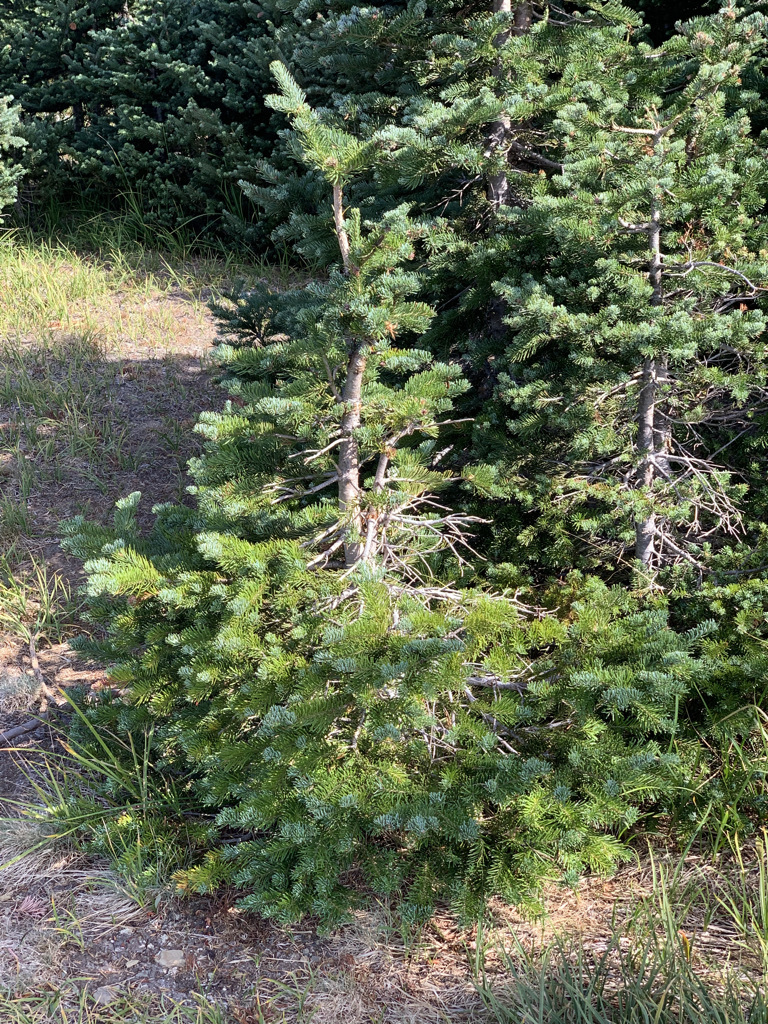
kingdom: Plantae
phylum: Tracheophyta
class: Pinopsida
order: Pinales
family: Pinaceae
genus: Abies
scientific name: Abies lasiocarpa
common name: Subalpine fir
